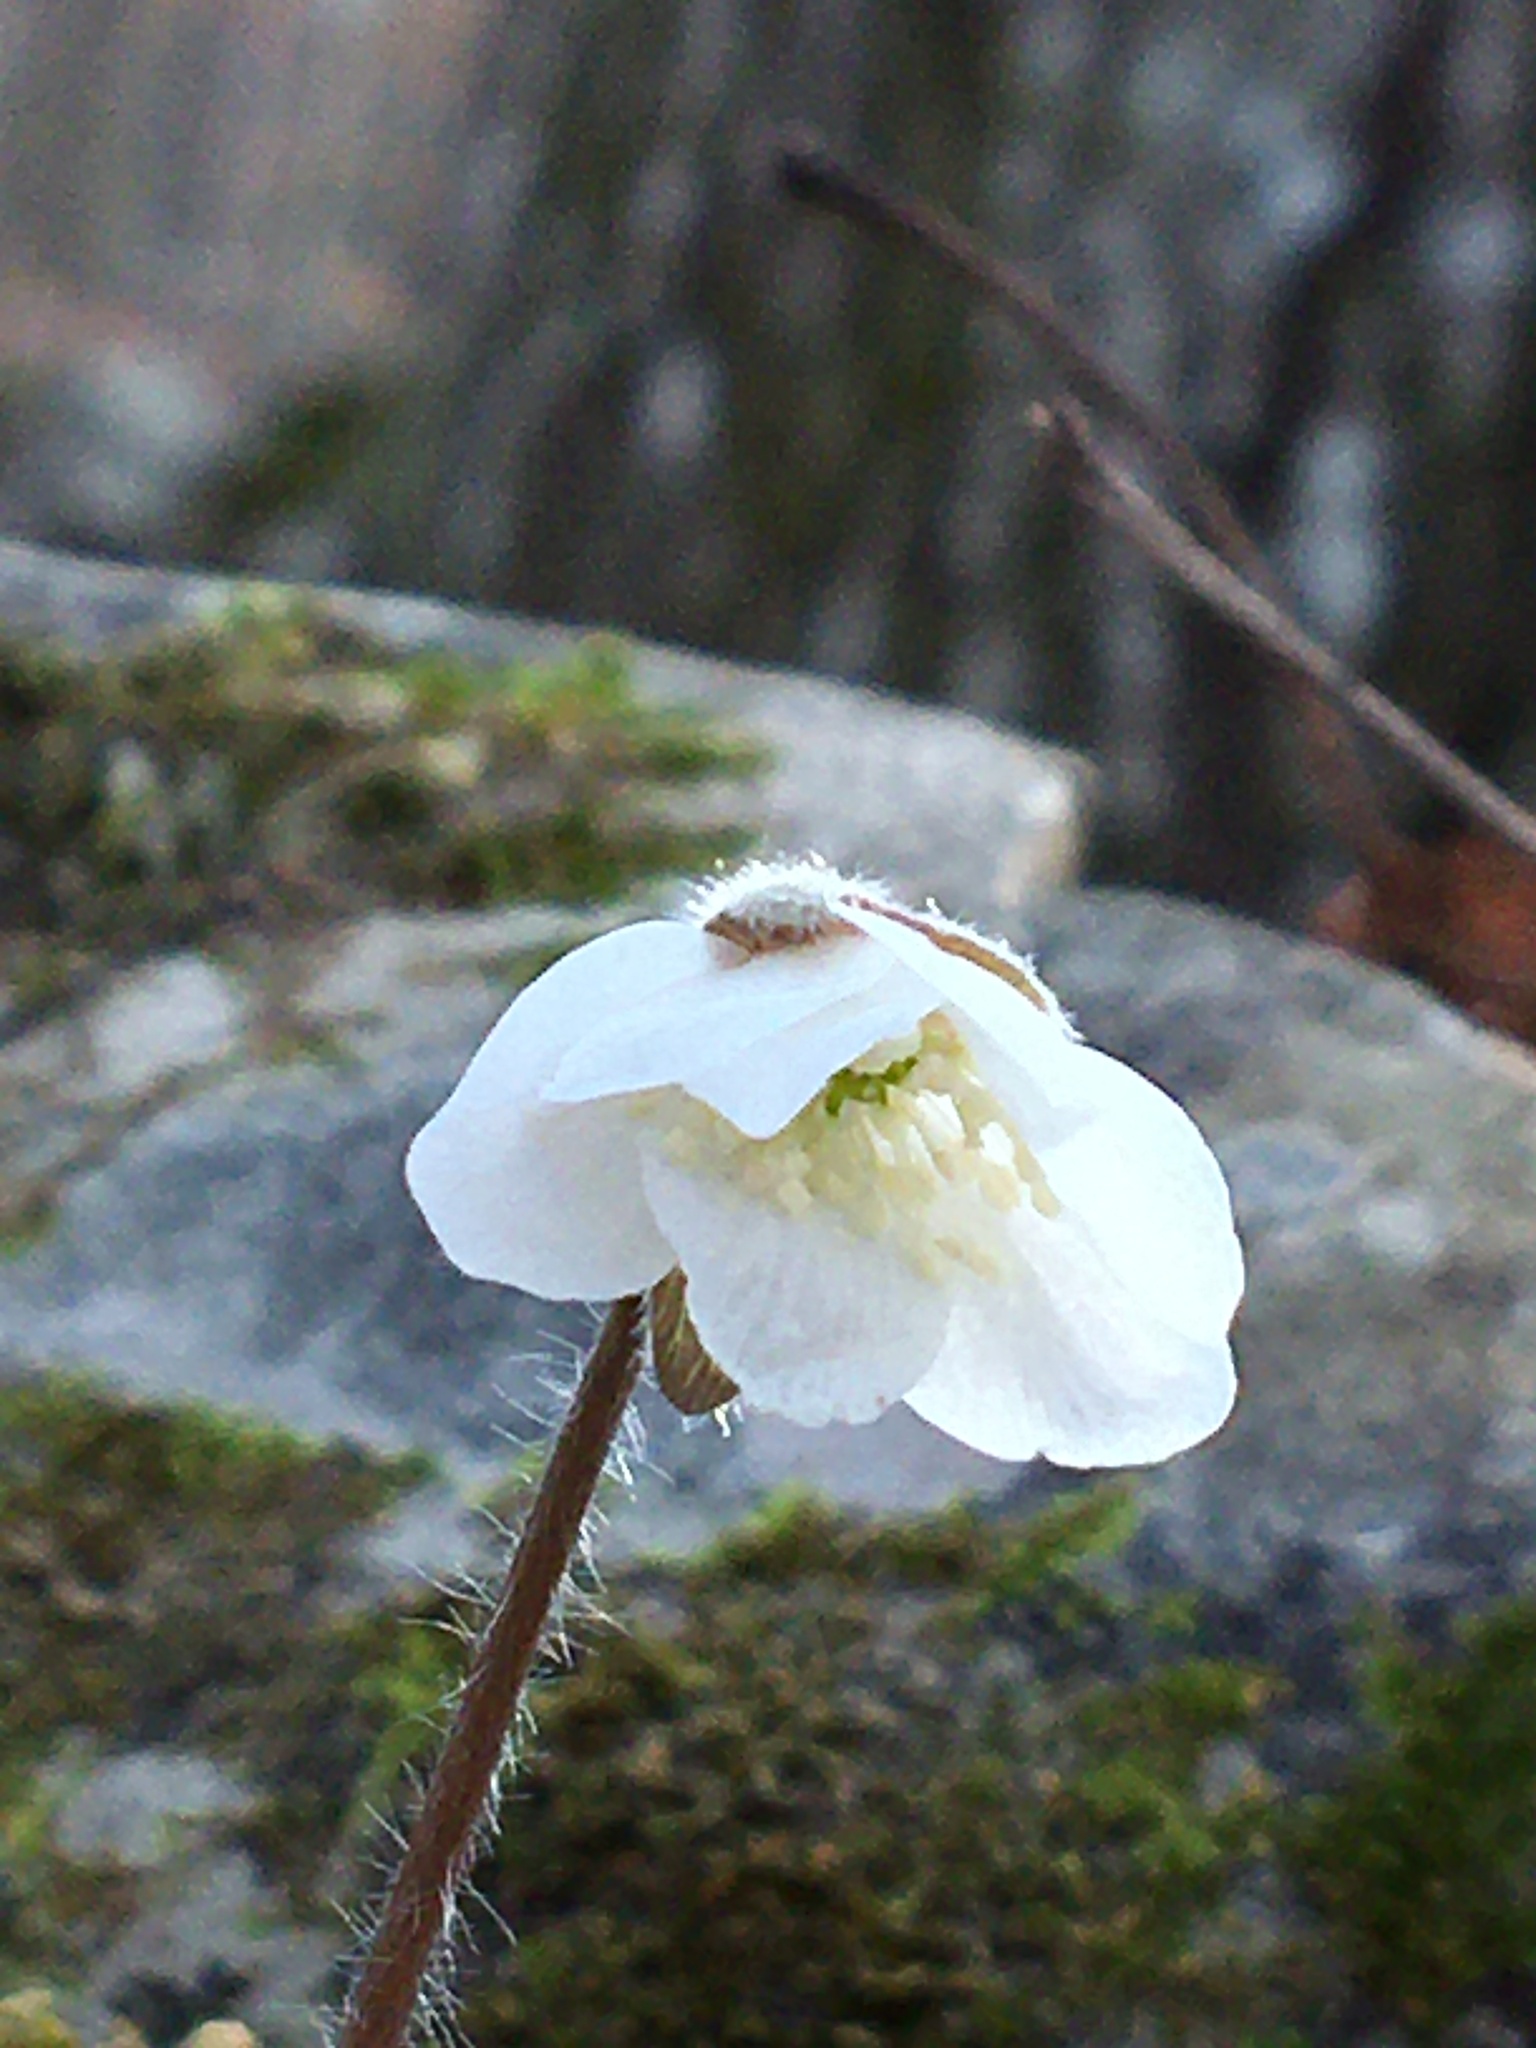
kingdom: Plantae
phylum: Tracheophyta
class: Magnoliopsida
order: Ranunculales
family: Ranunculaceae
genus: Hepatica
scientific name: Hepatica acutiloba
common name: Sharp-lobed hepatica
